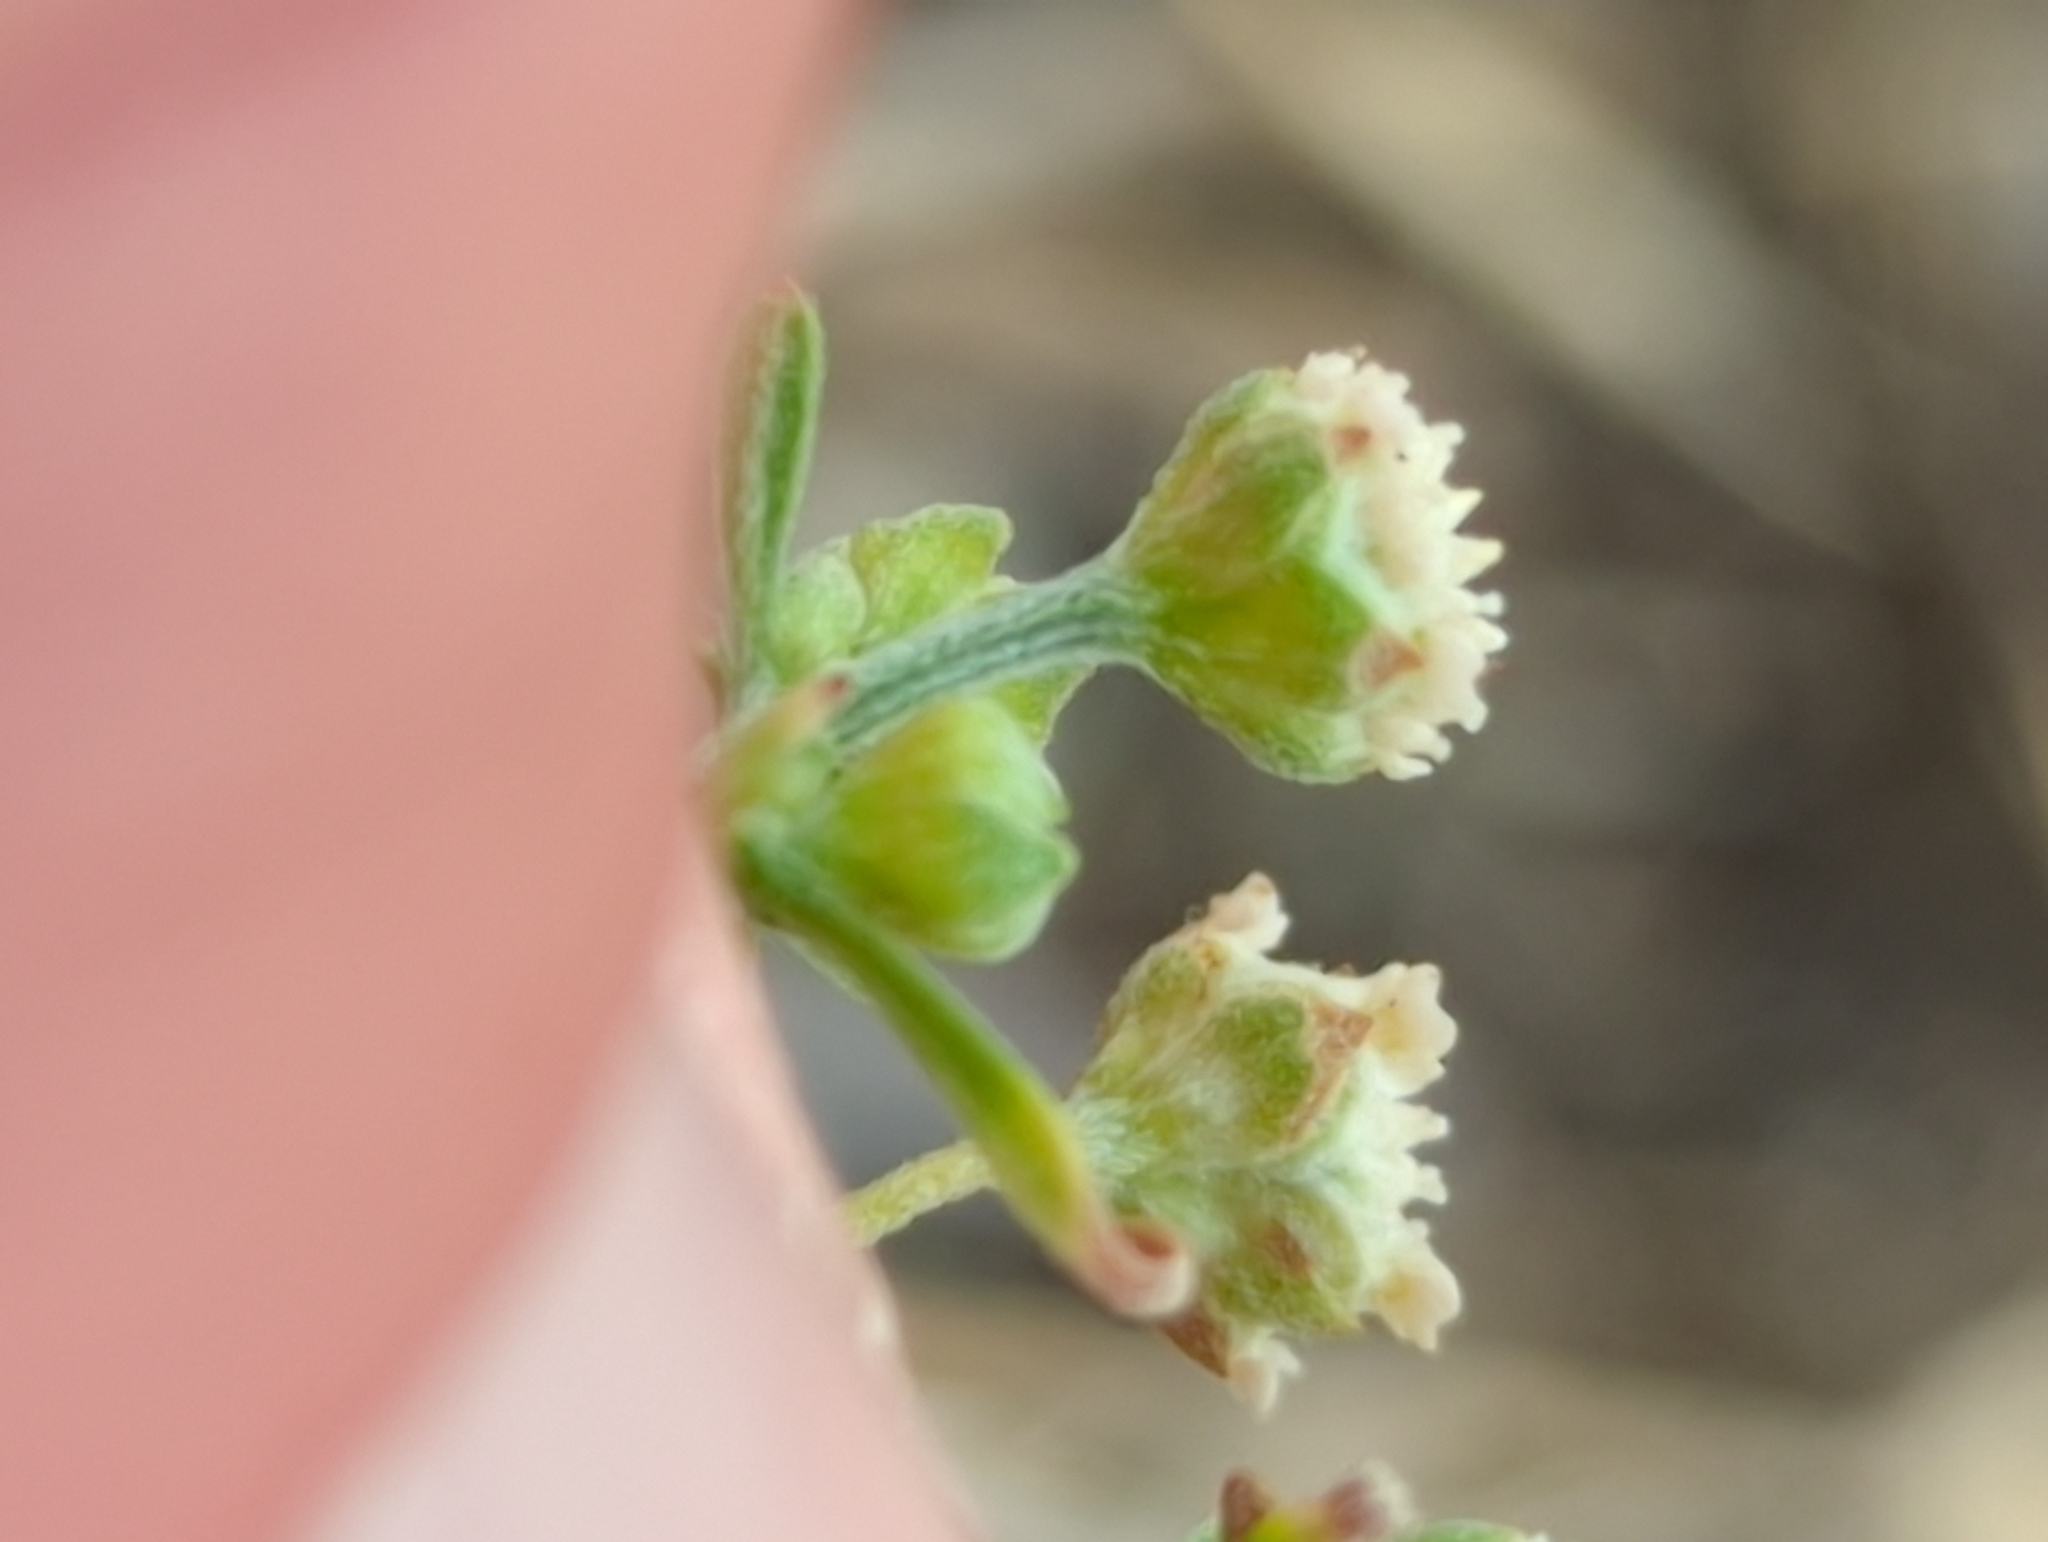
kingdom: Plantae
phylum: Tracheophyta
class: Magnoliopsida
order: Asterales
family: Asteraceae
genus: Parthenium
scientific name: Parthenium hysterophorus
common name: Santa maria feverfew
